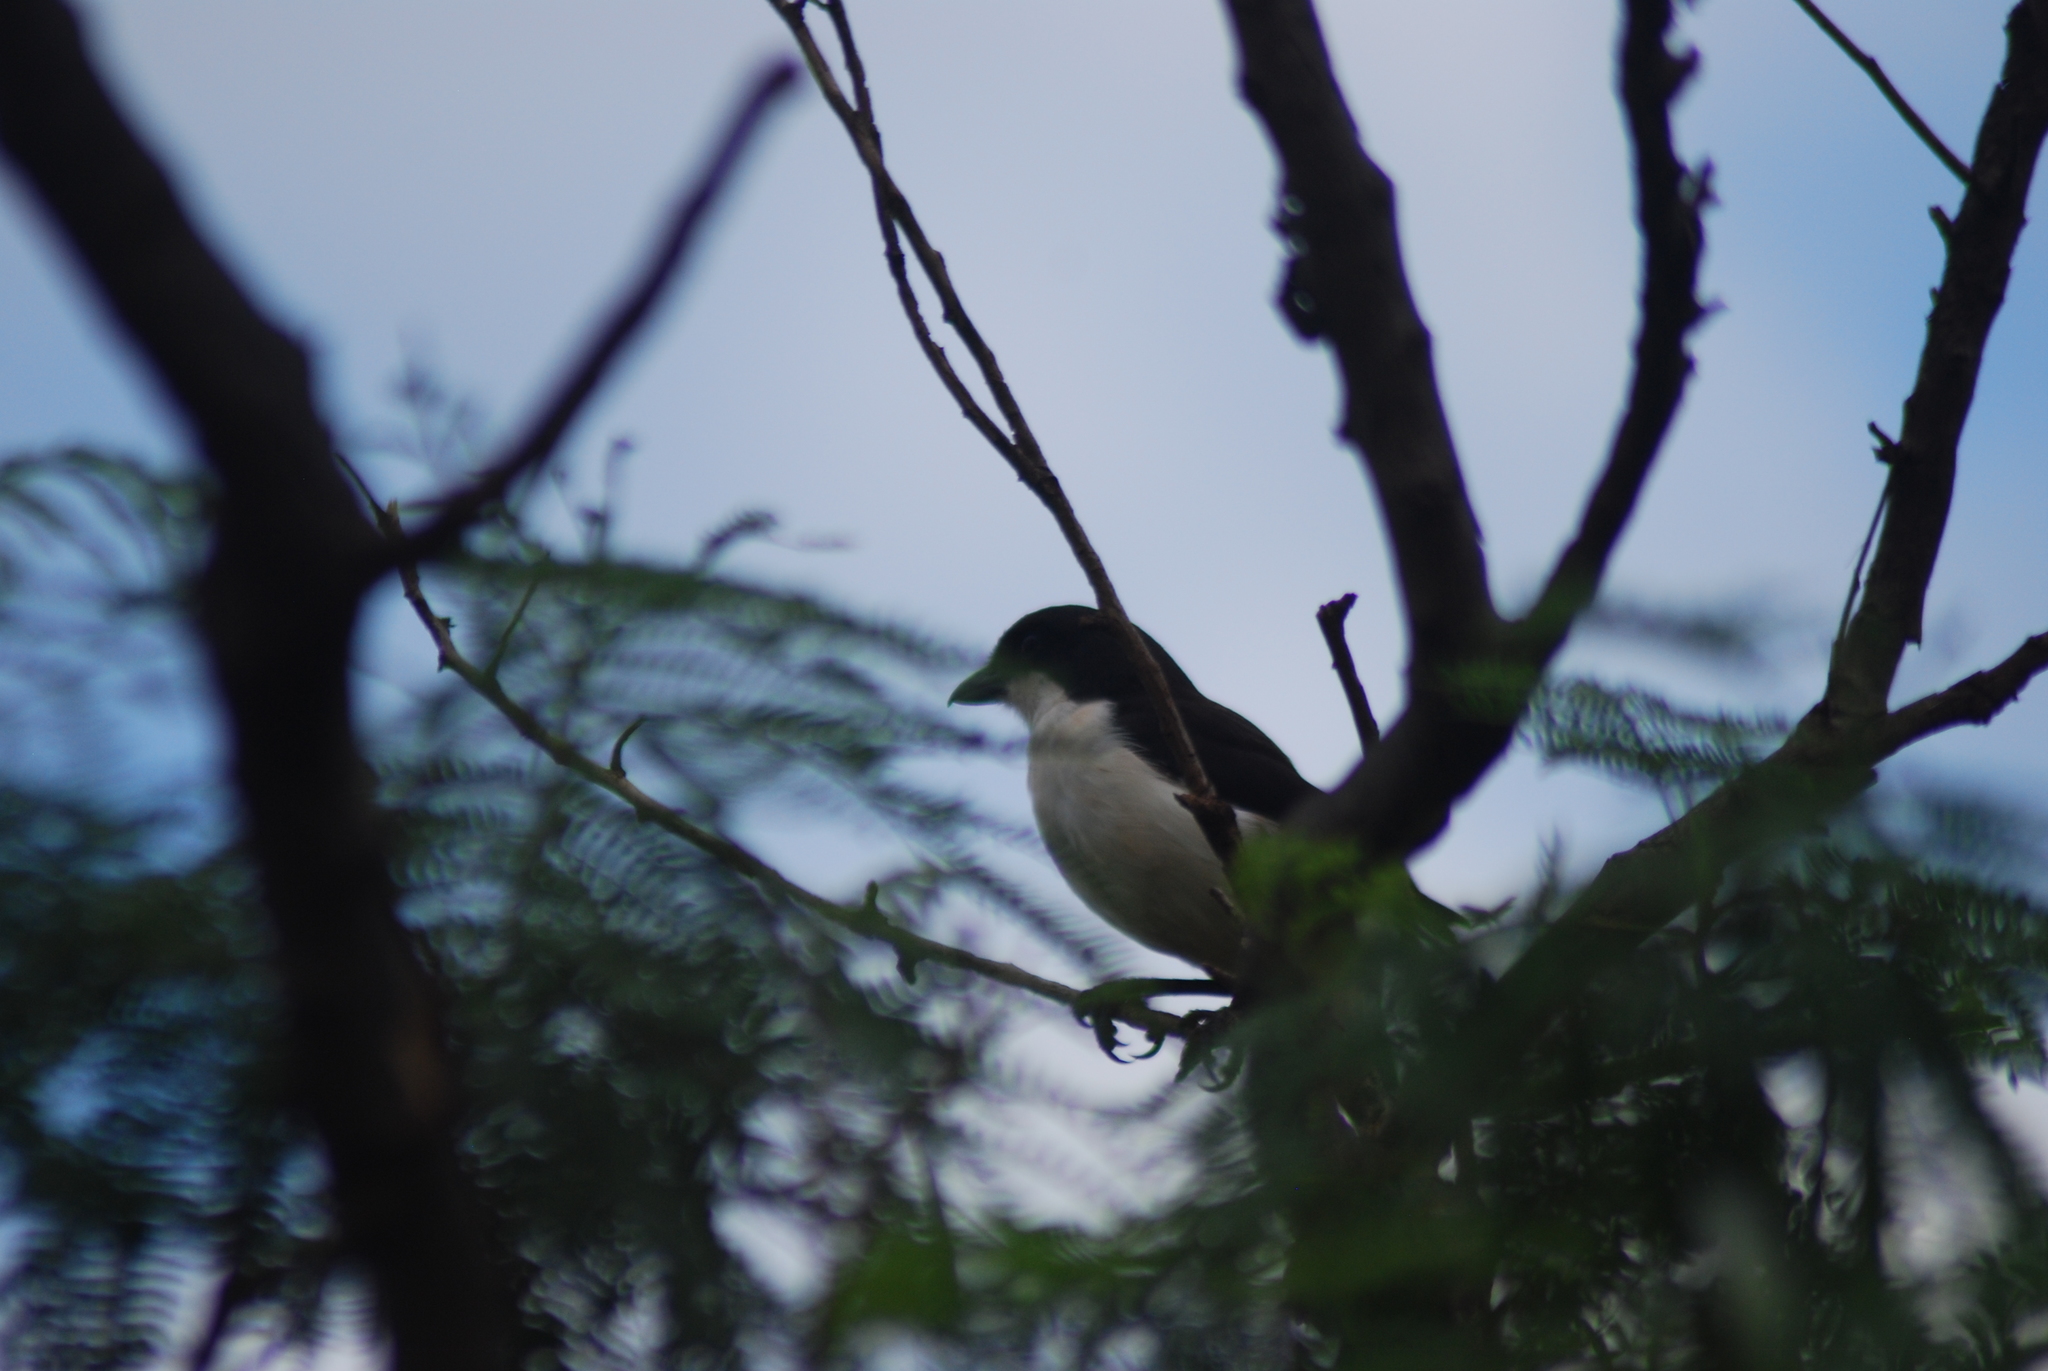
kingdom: Animalia
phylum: Chordata
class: Aves
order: Passeriformes
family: Laniidae
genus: Lanius
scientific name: Lanius humeralis
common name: Northern fiscal
